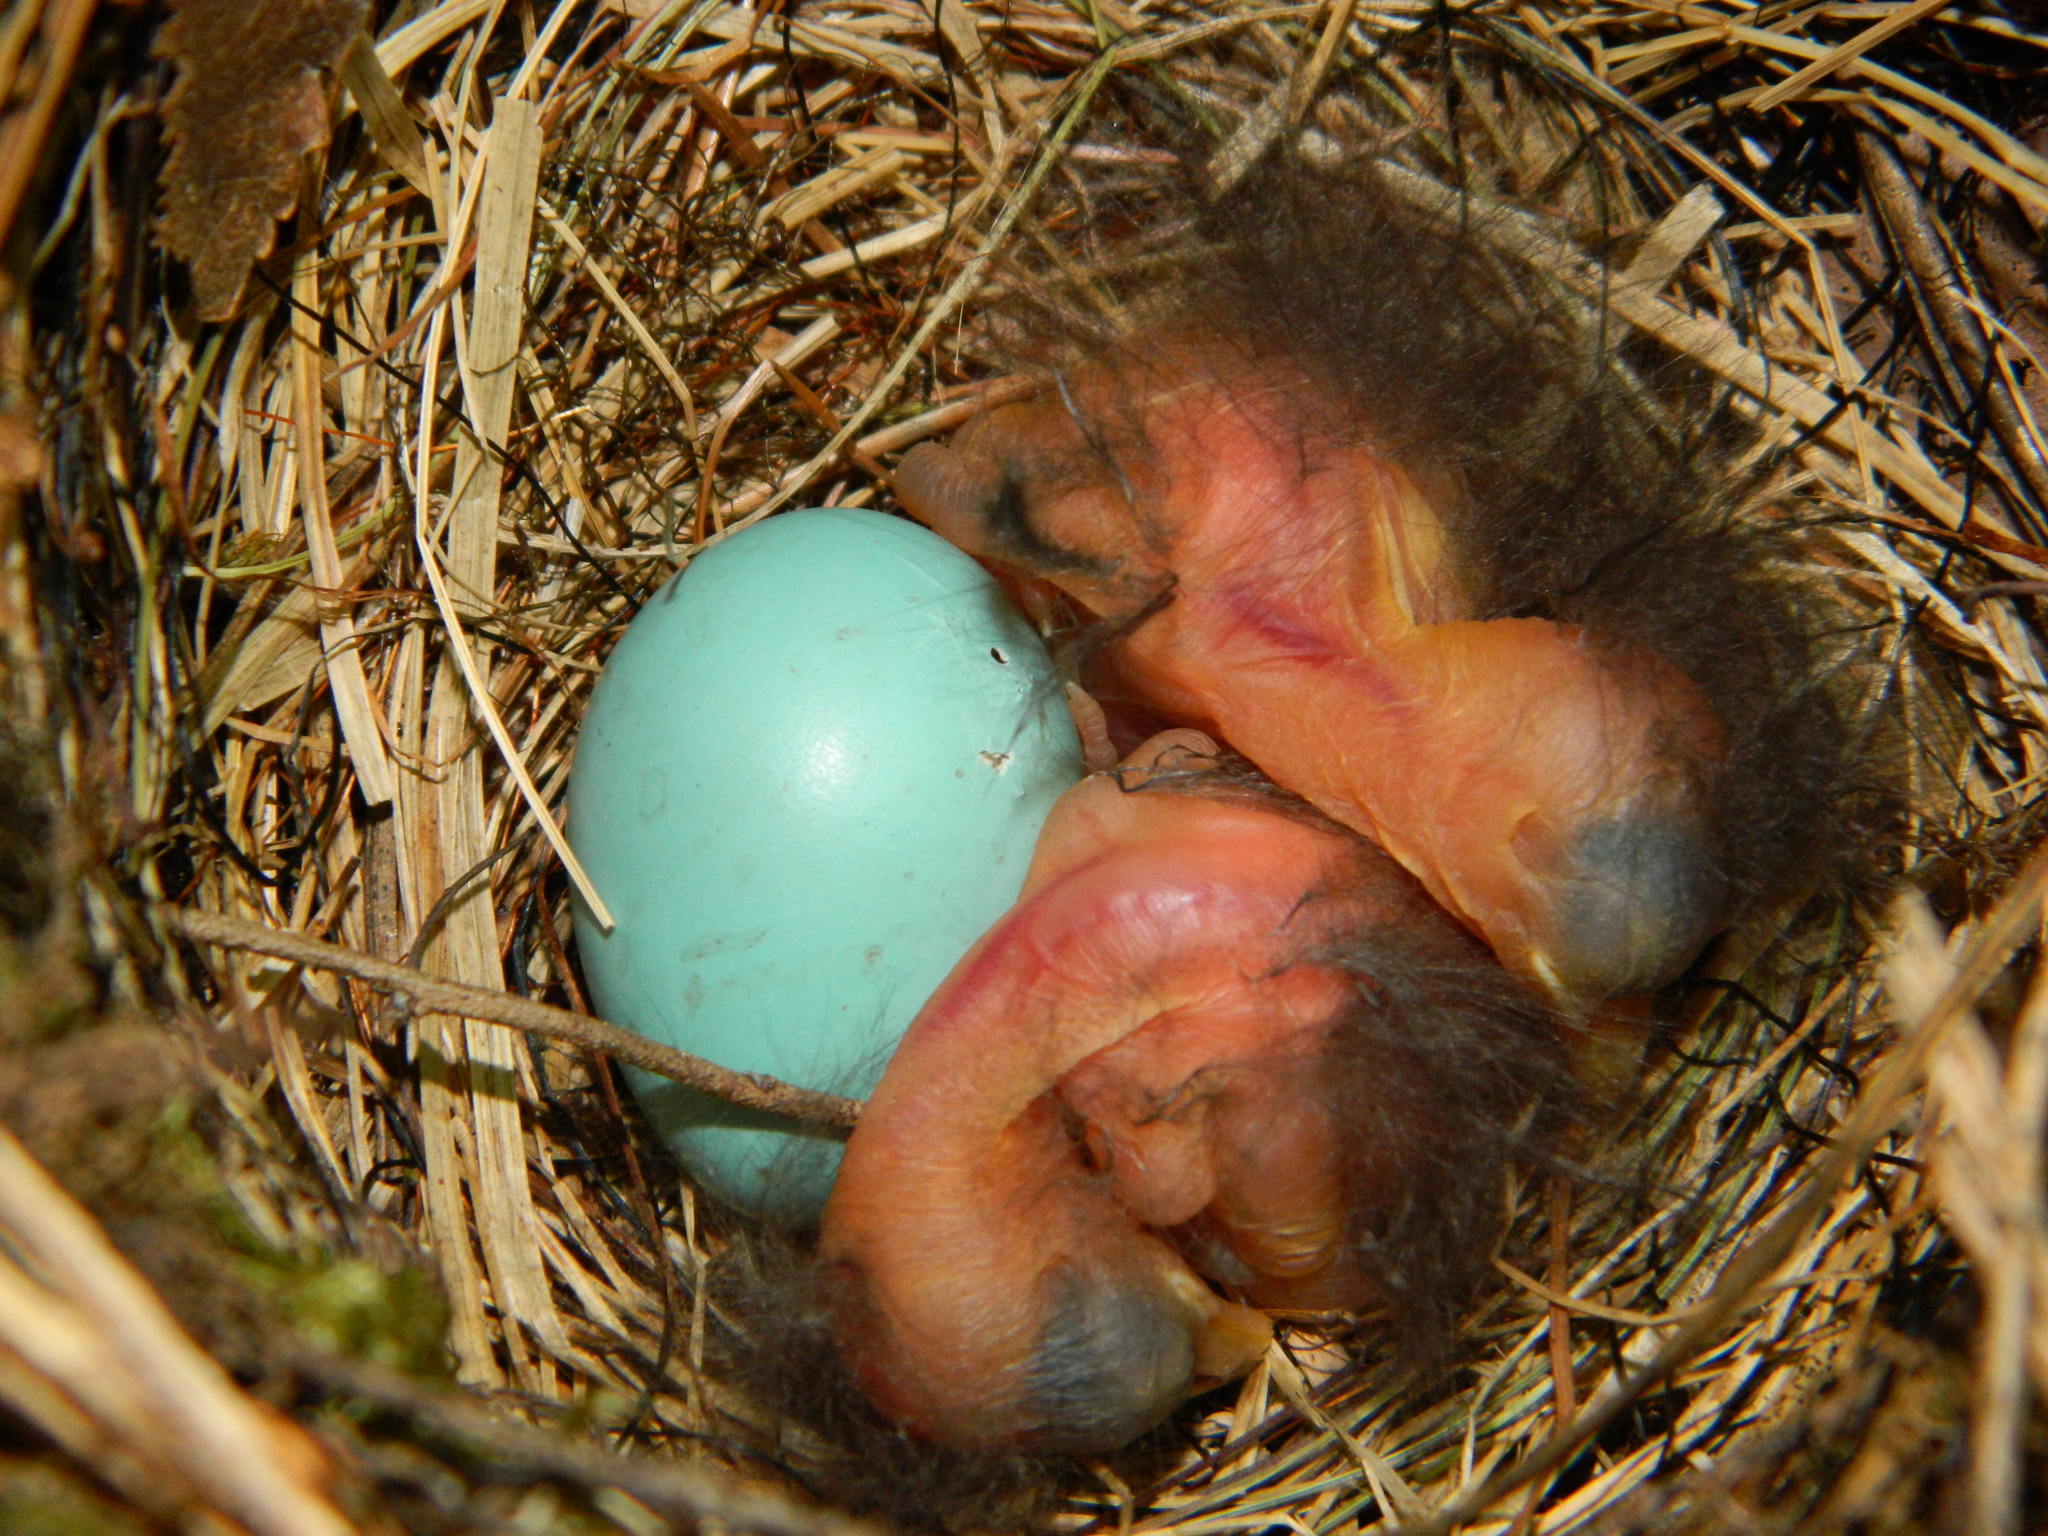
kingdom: Animalia
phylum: Chordata
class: Aves
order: Passeriformes
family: Turdidae
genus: Catharus
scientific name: Catharus guttatus
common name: Hermit thrush
